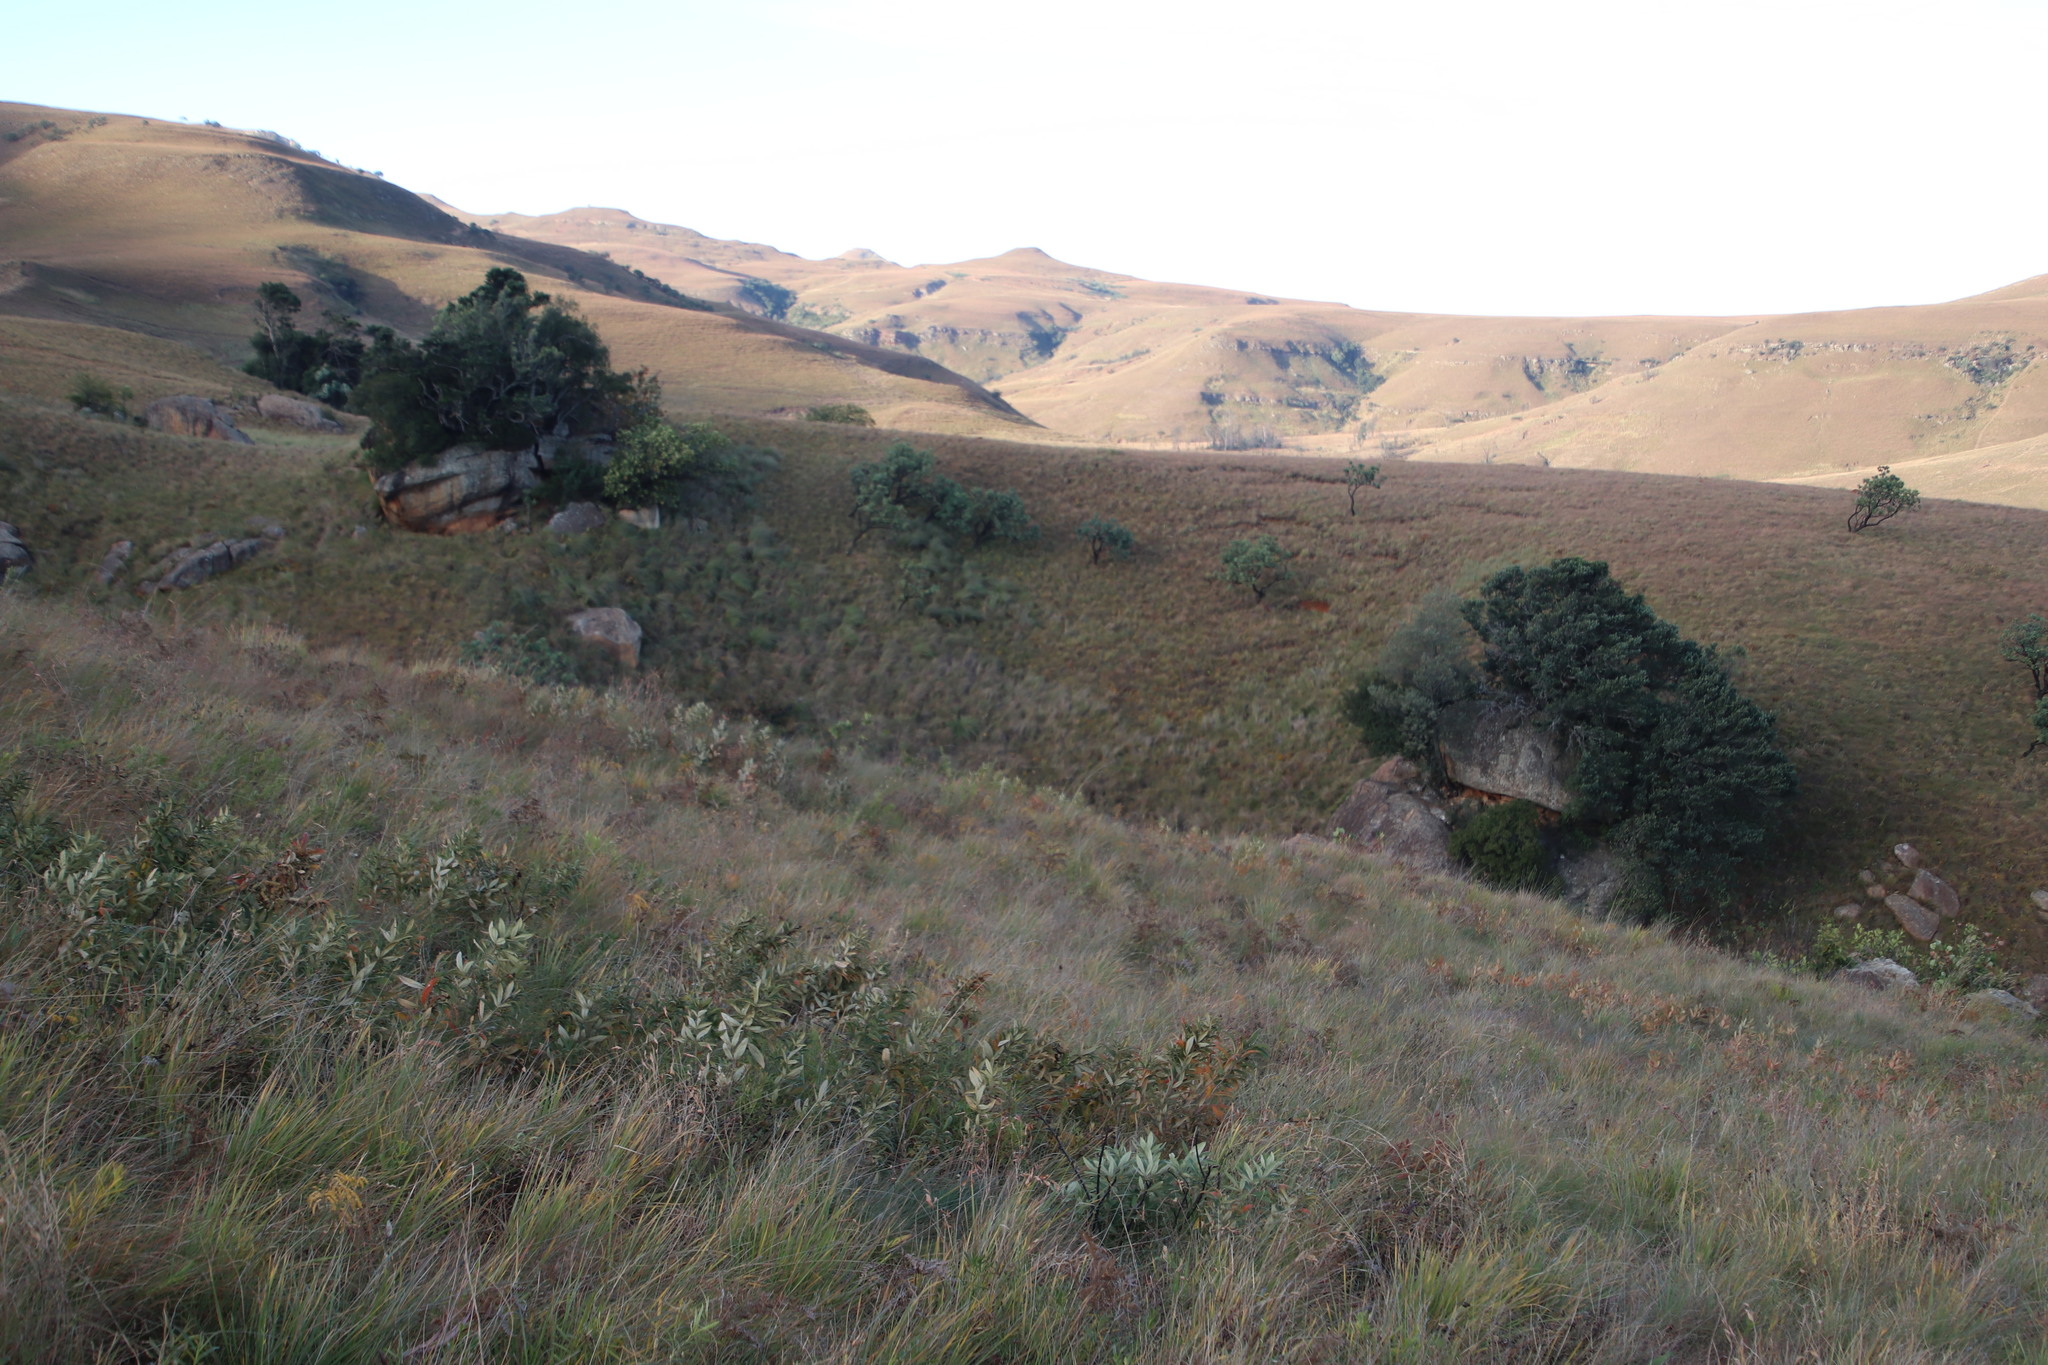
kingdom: Plantae
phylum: Tracheophyta
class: Magnoliopsida
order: Proteales
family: Proteaceae
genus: Protea
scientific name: Protea caffra
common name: Common sugarbush
